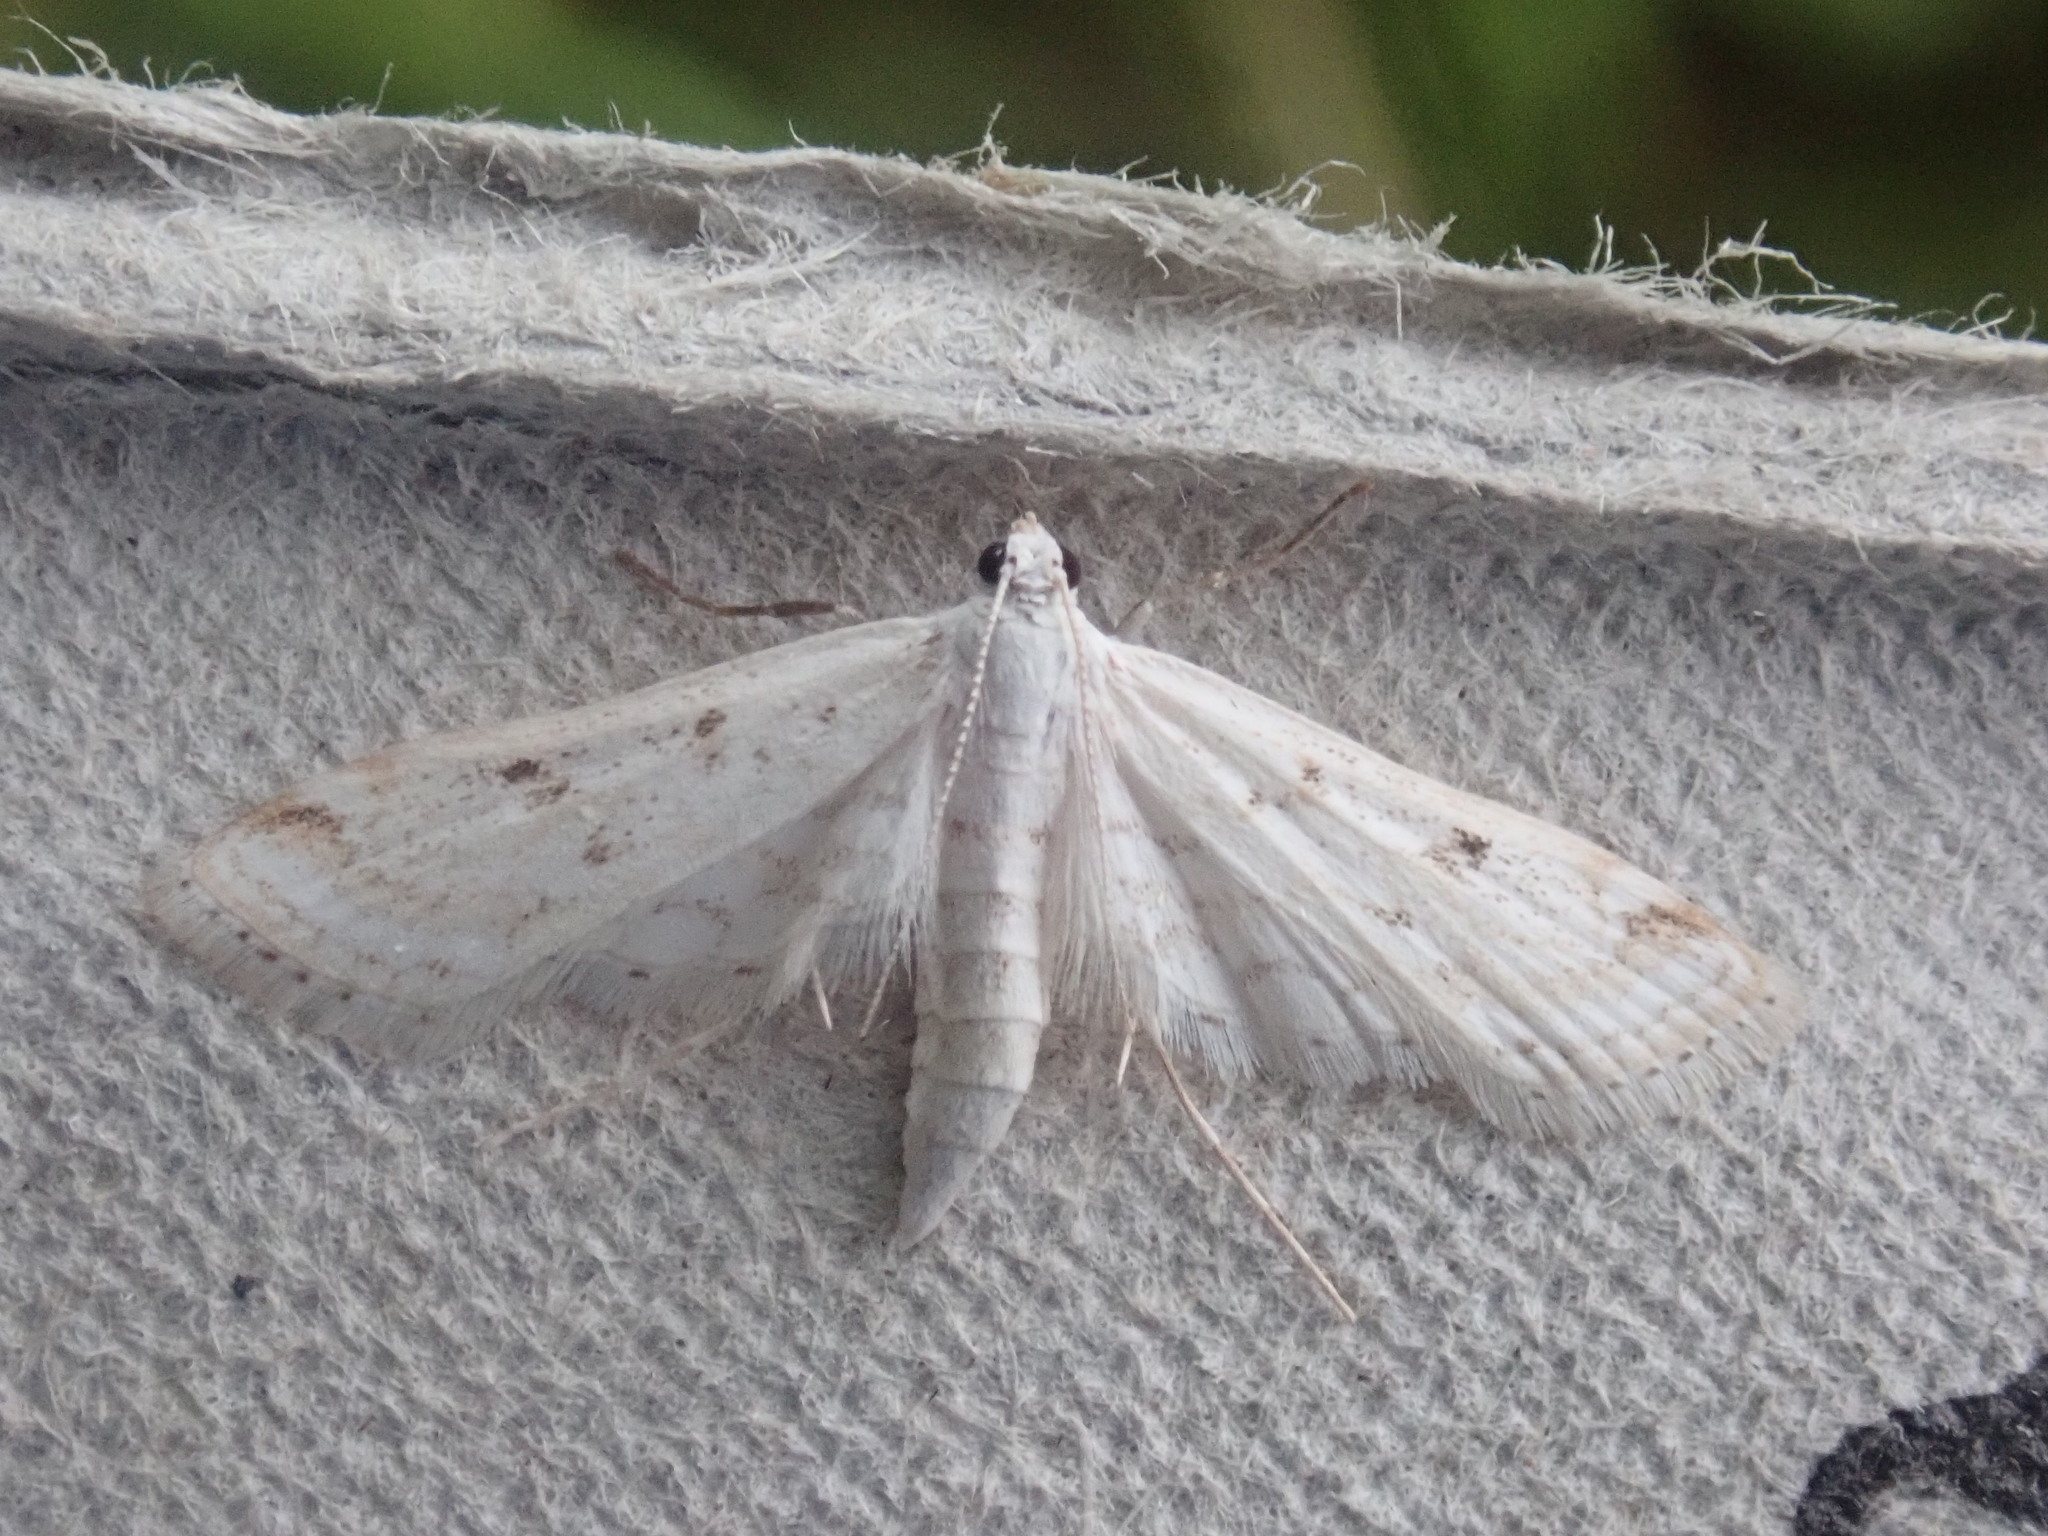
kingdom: Animalia
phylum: Arthropoda
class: Insecta
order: Lepidoptera
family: Crambidae
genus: Parapoynx
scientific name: Parapoynx allionealis
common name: Bladderwort casemaker
